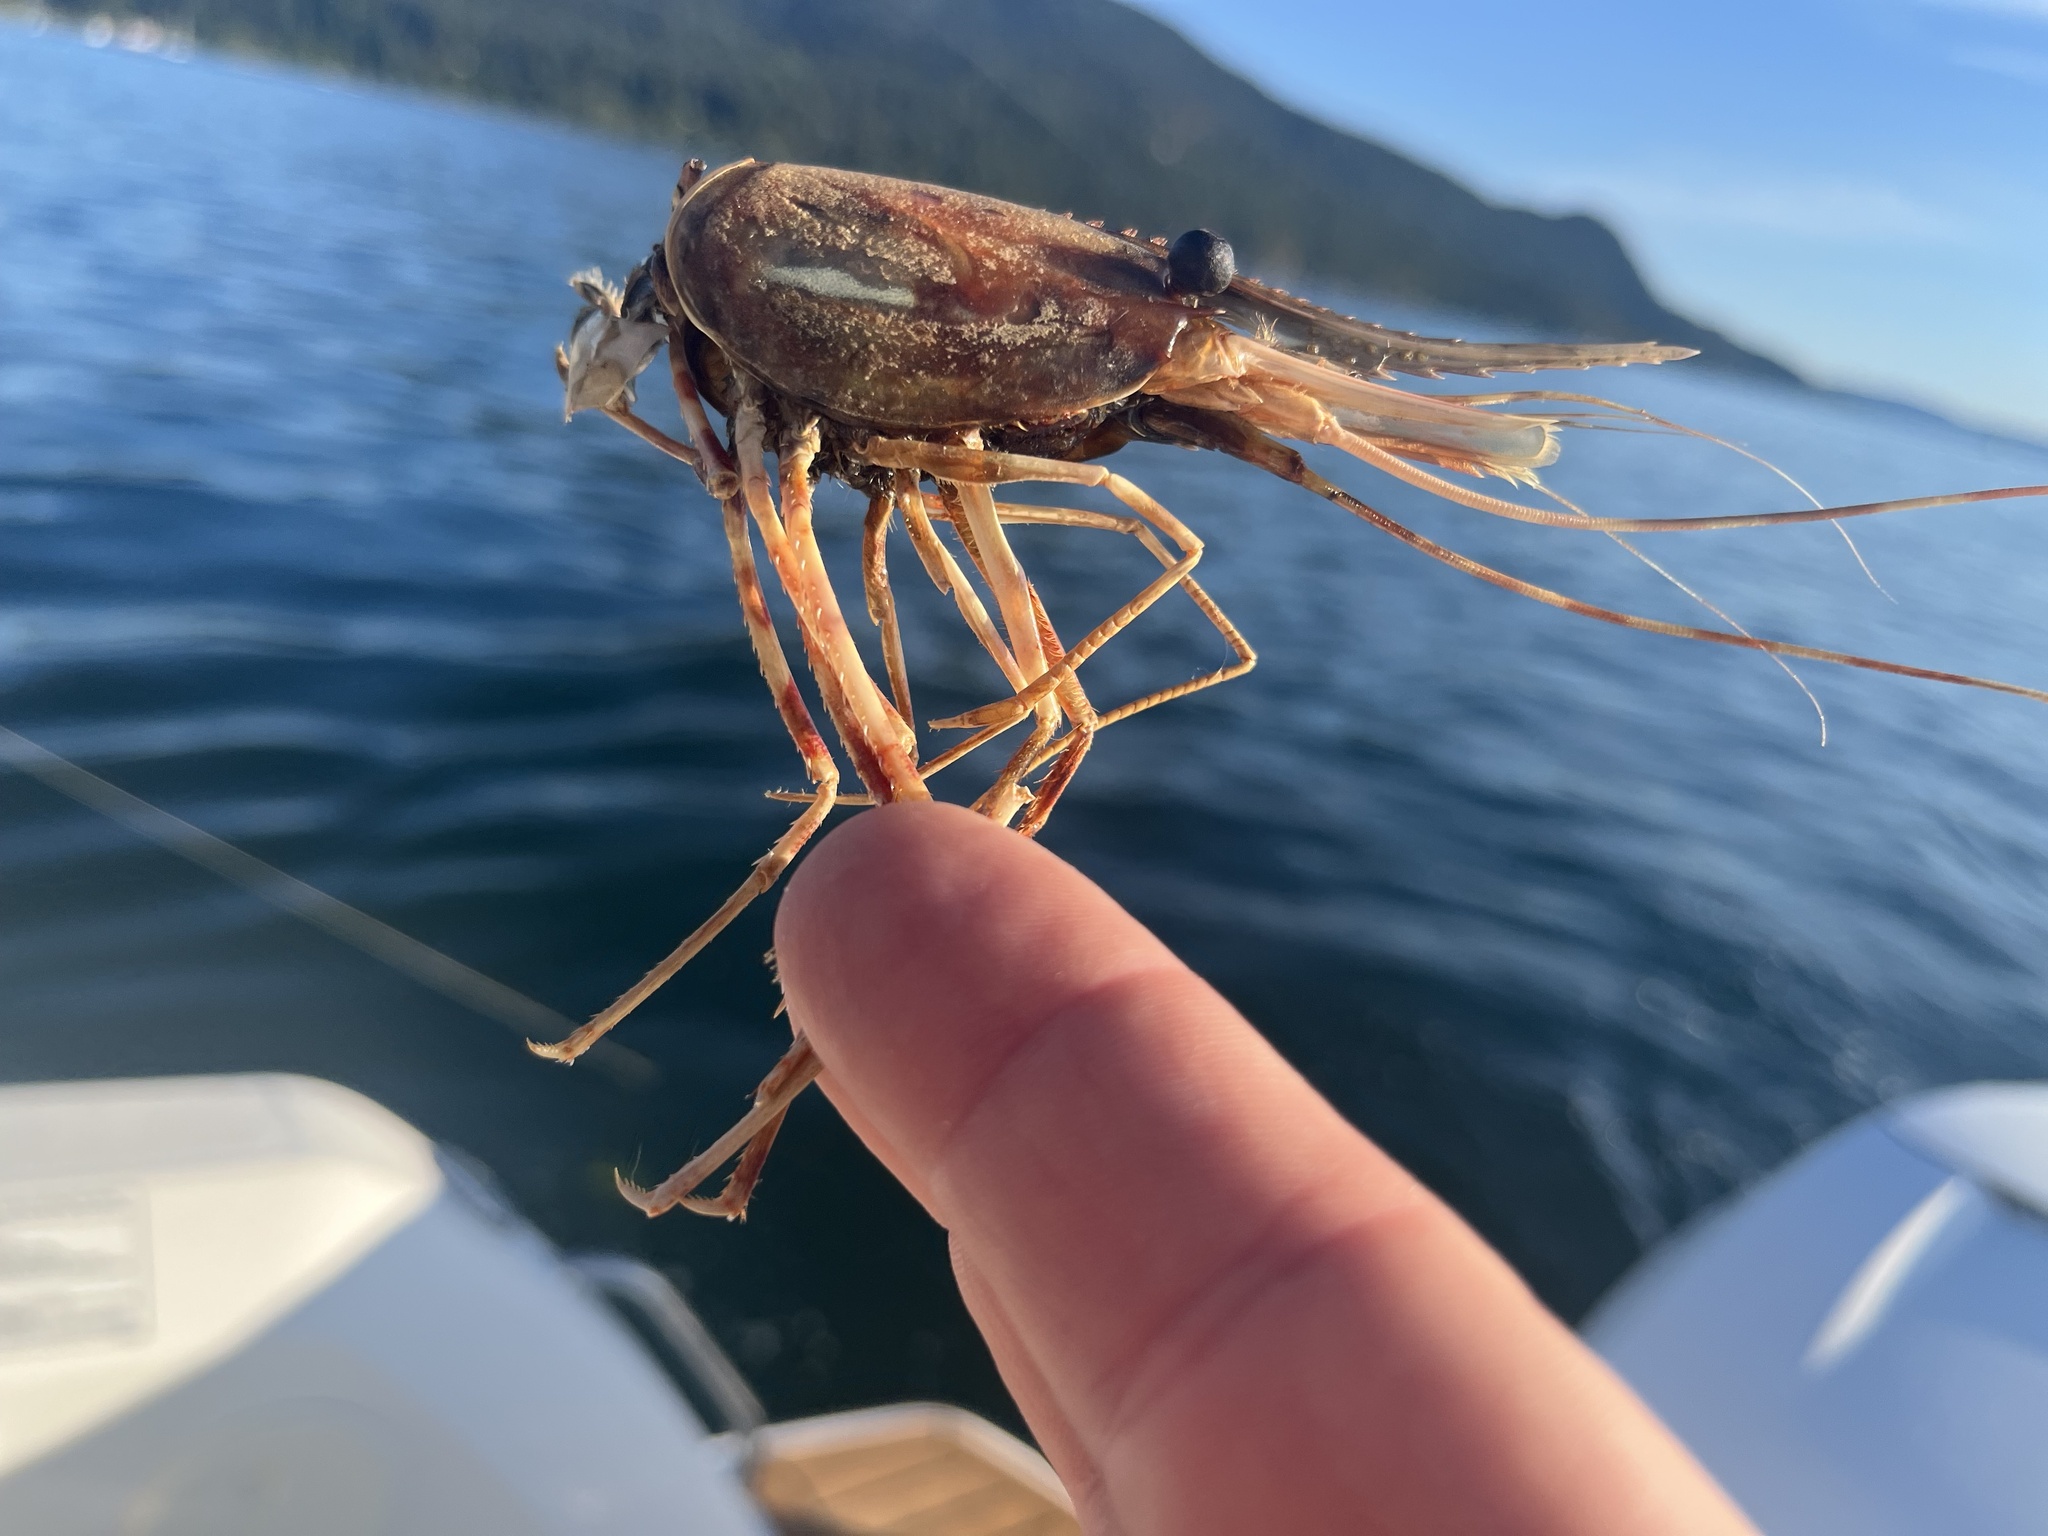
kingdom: Animalia
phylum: Arthropoda
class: Malacostraca
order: Decapoda
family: Pandalidae
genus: Pandalus
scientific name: Pandalus platyceros
